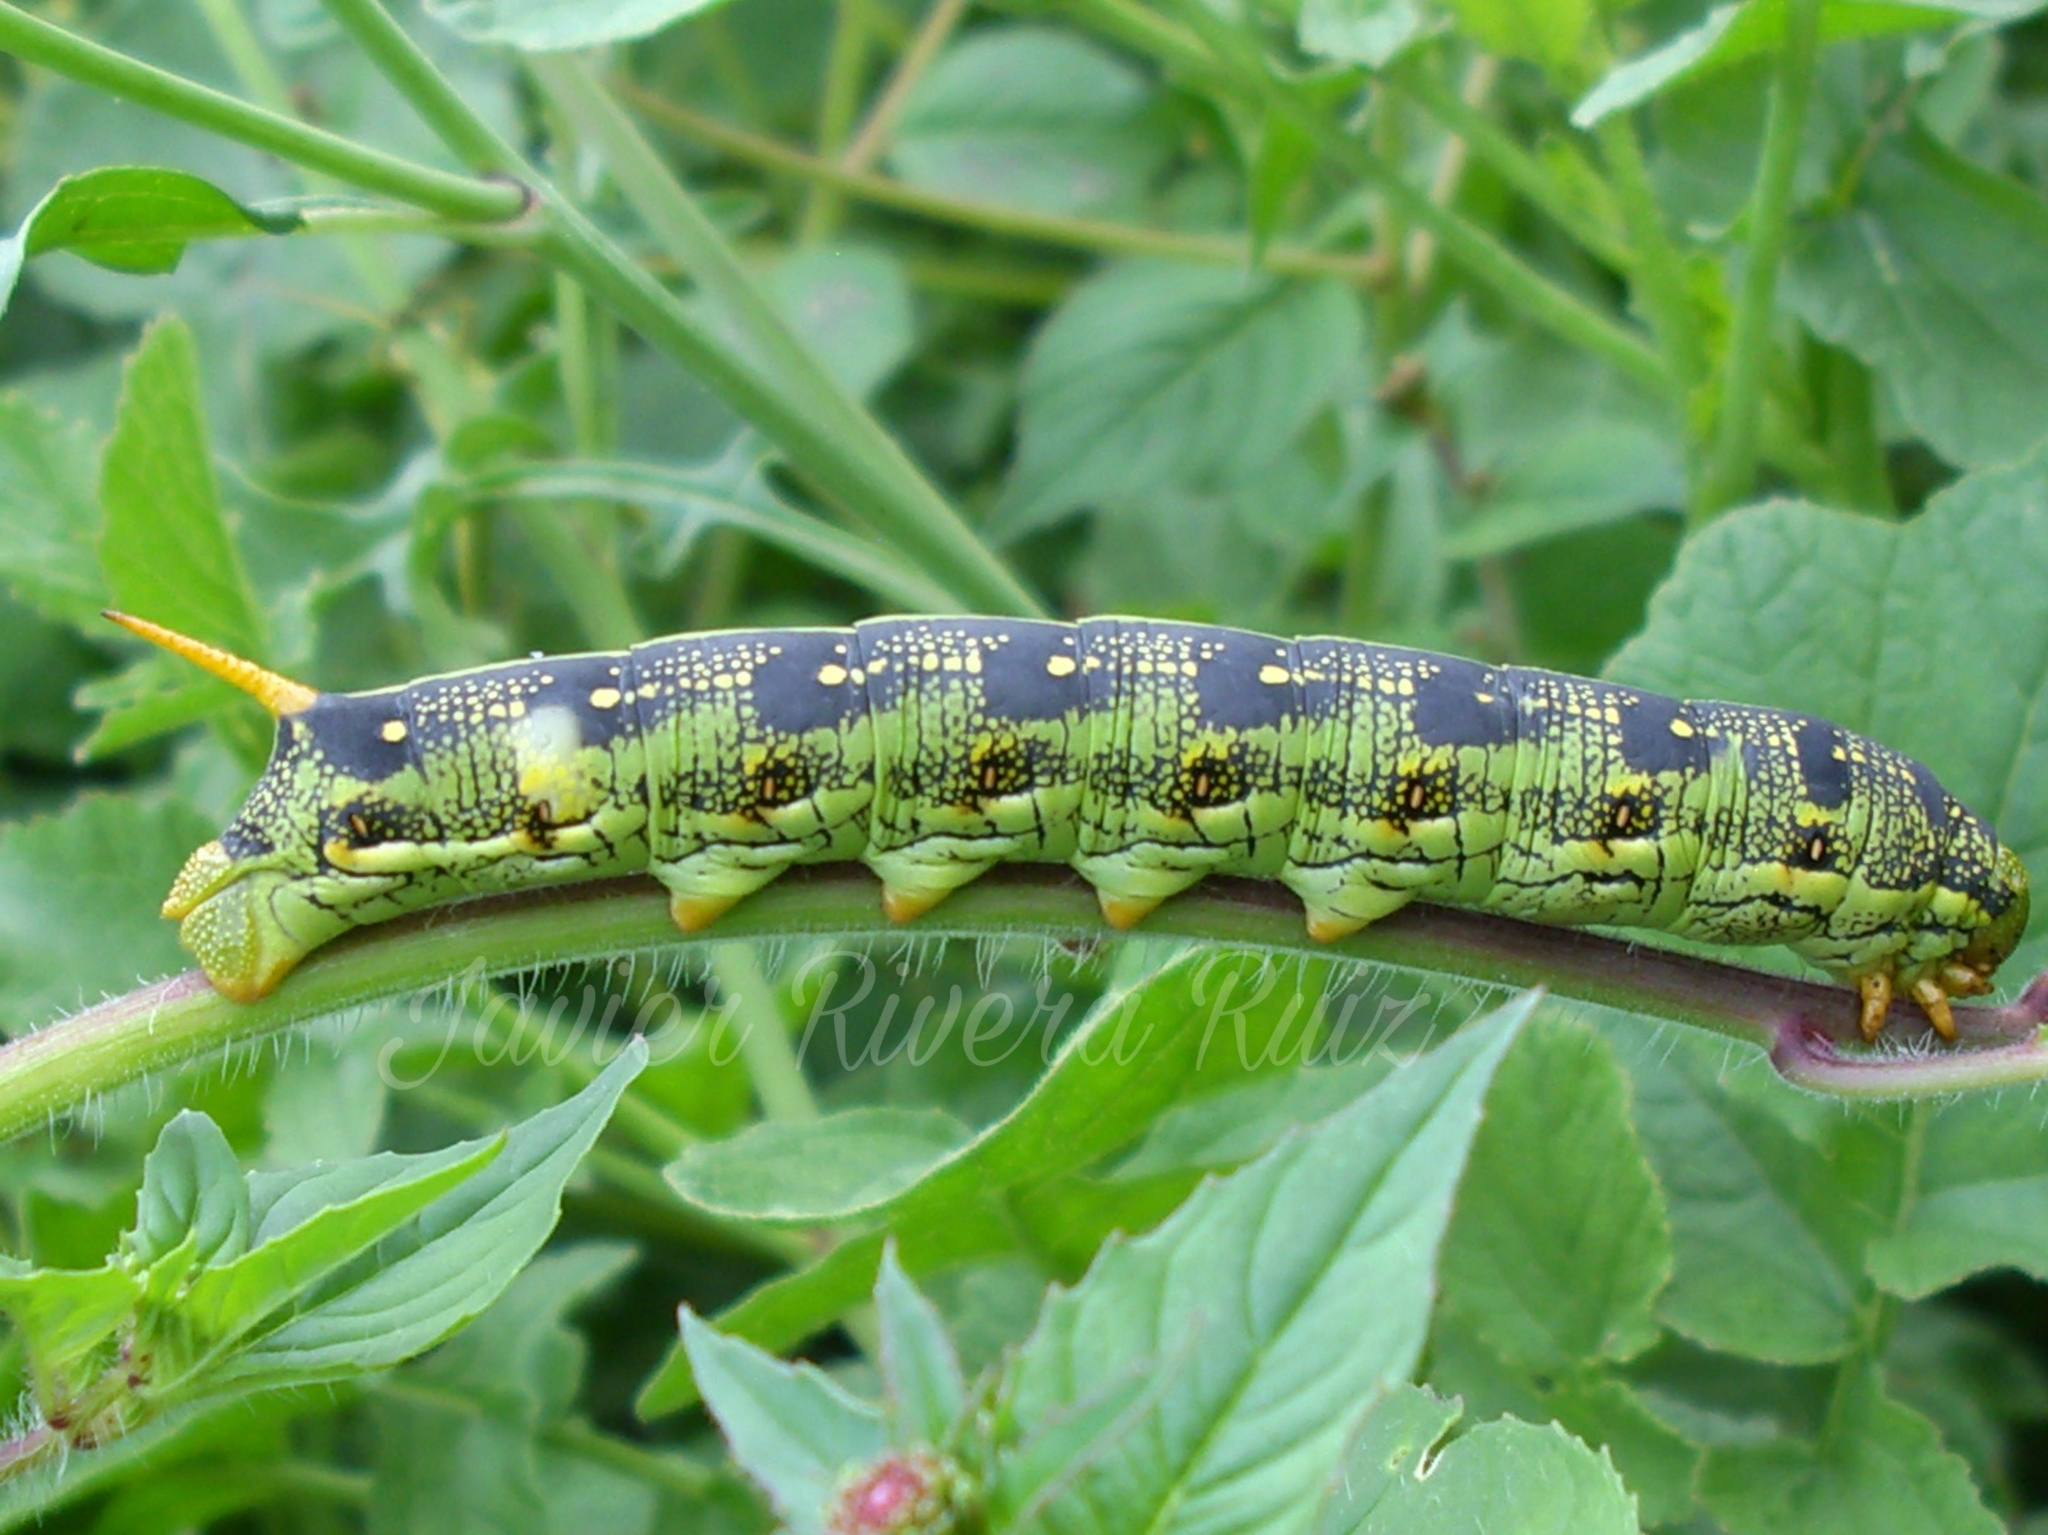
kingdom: Animalia
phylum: Arthropoda
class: Insecta
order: Lepidoptera
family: Sphingidae
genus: Hyles
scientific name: Hyles lineata
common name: White-lined sphinx
